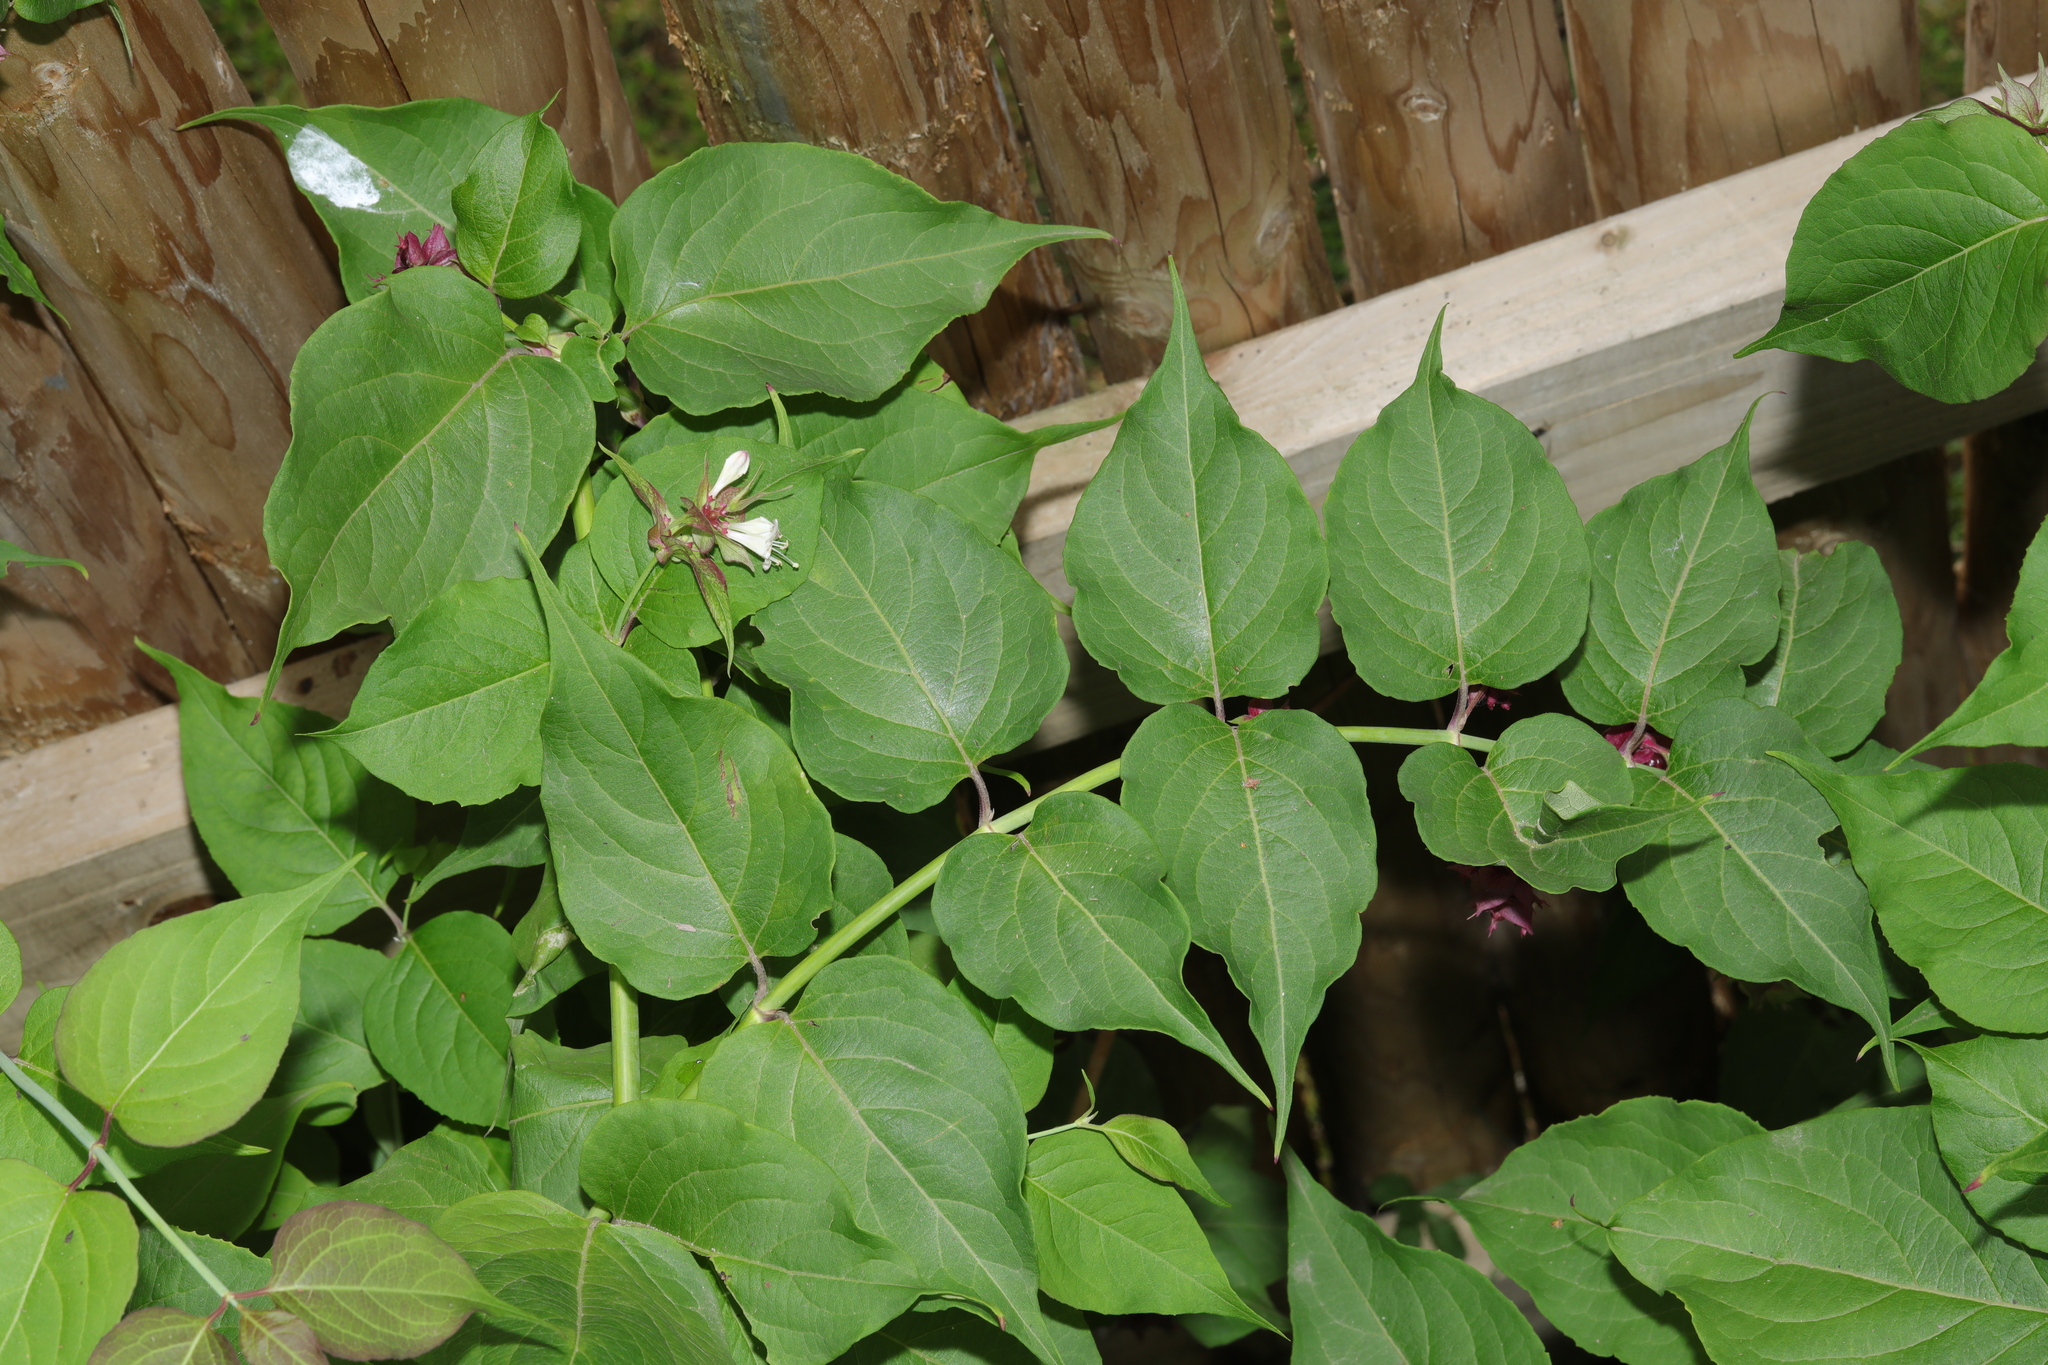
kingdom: Plantae
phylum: Tracheophyta
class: Magnoliopsida
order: Dipsacales
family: Caprifoliaceae
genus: Leycesteria
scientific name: Leycesteria formosa
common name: Himalayan honeysuckle
